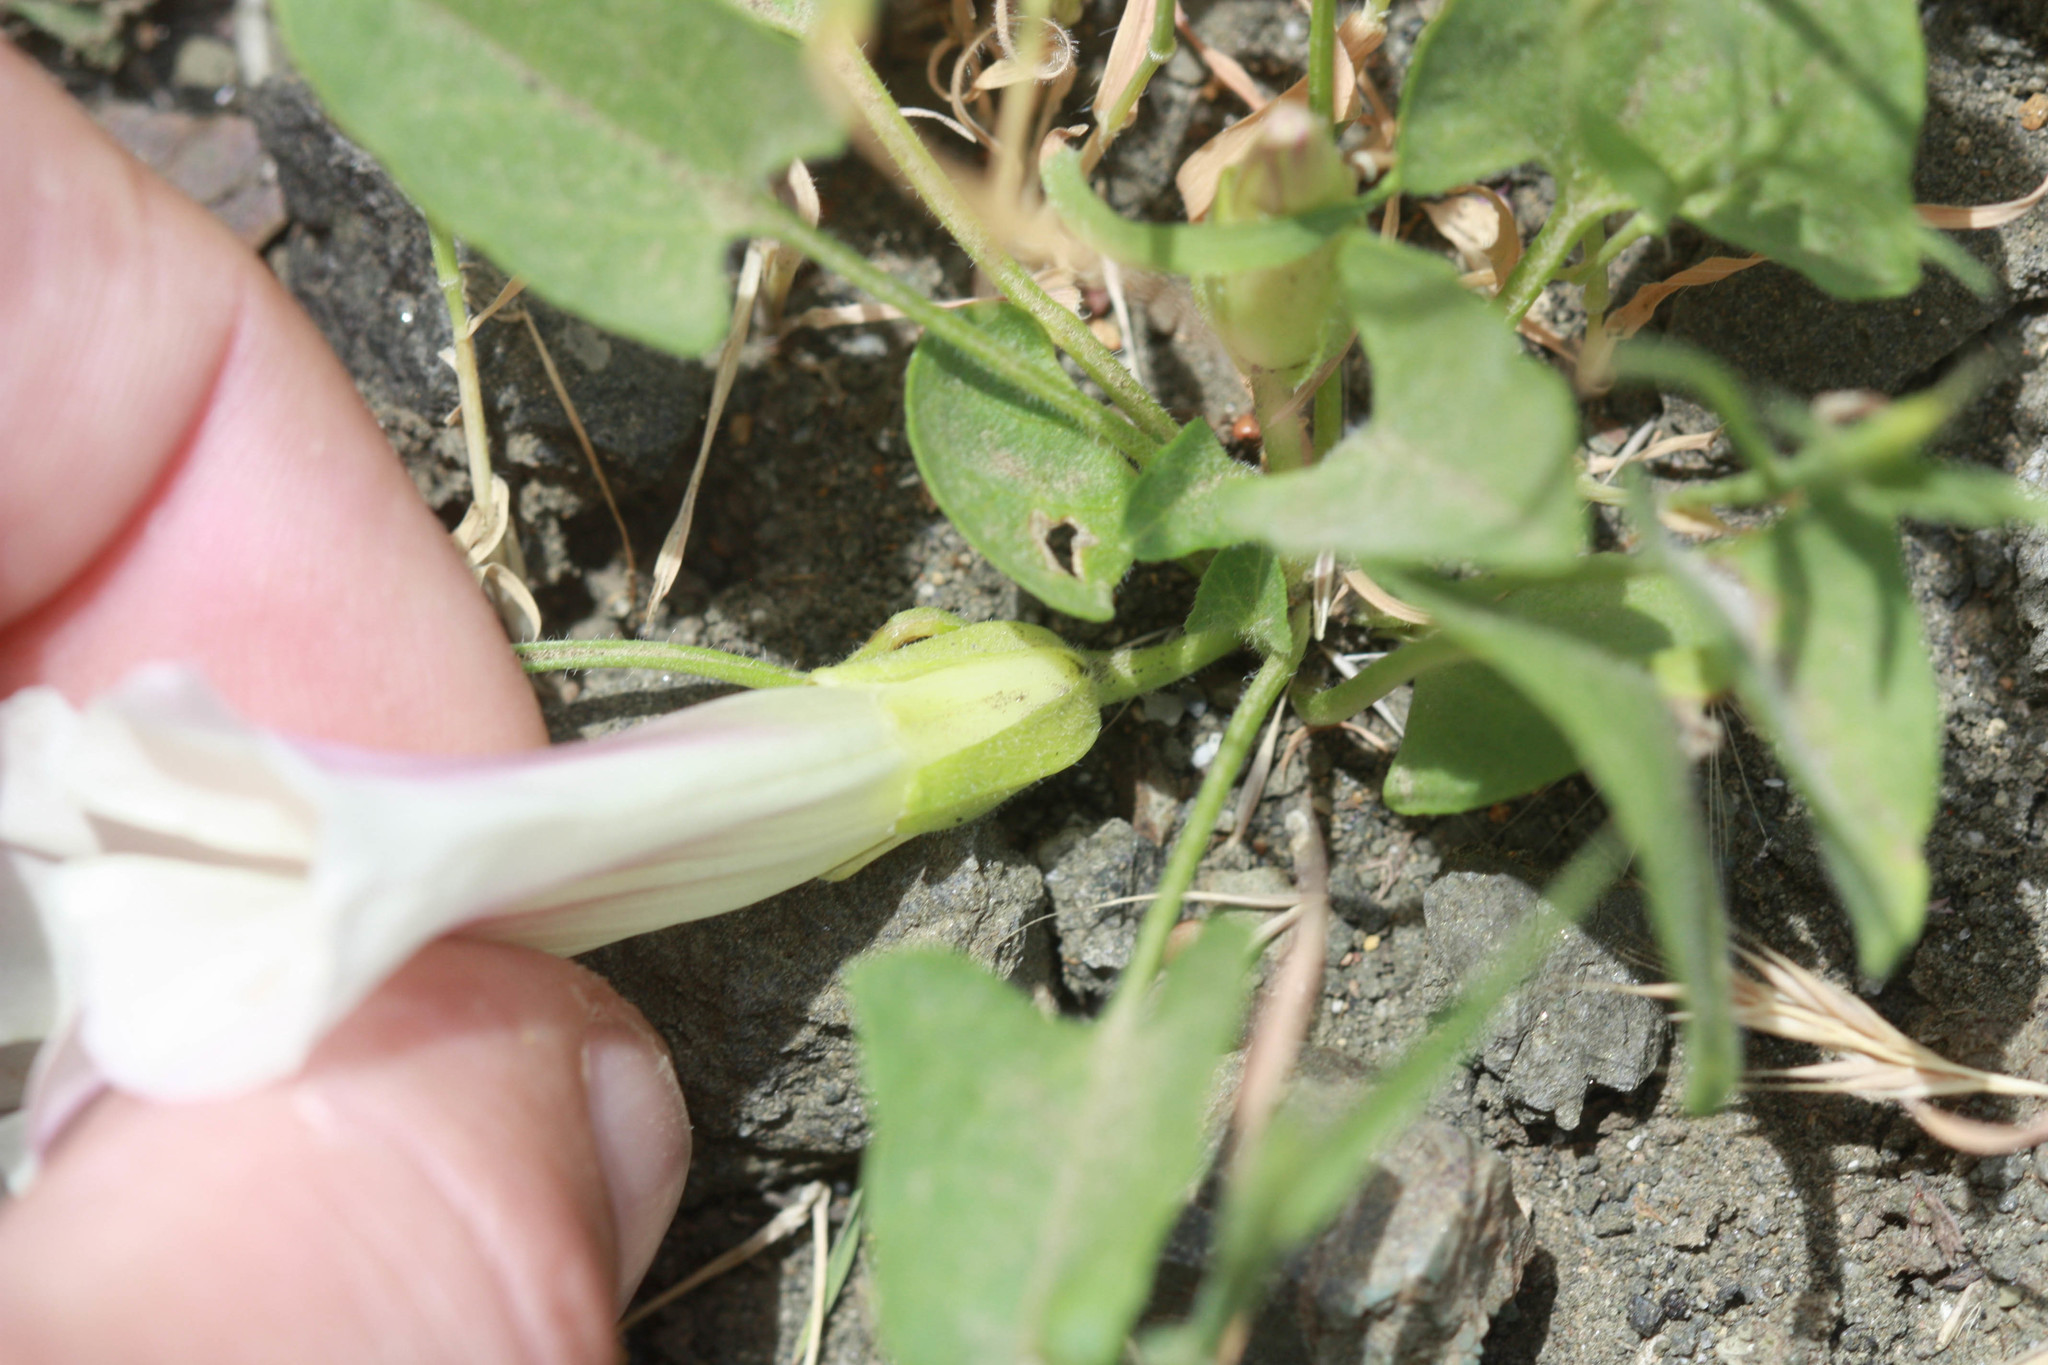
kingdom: Plantae
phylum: Tracheophyta
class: Magnoliopsida
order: Solanales
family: Convolvulaceae
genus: Calystegia
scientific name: Calystegia subacaulis
